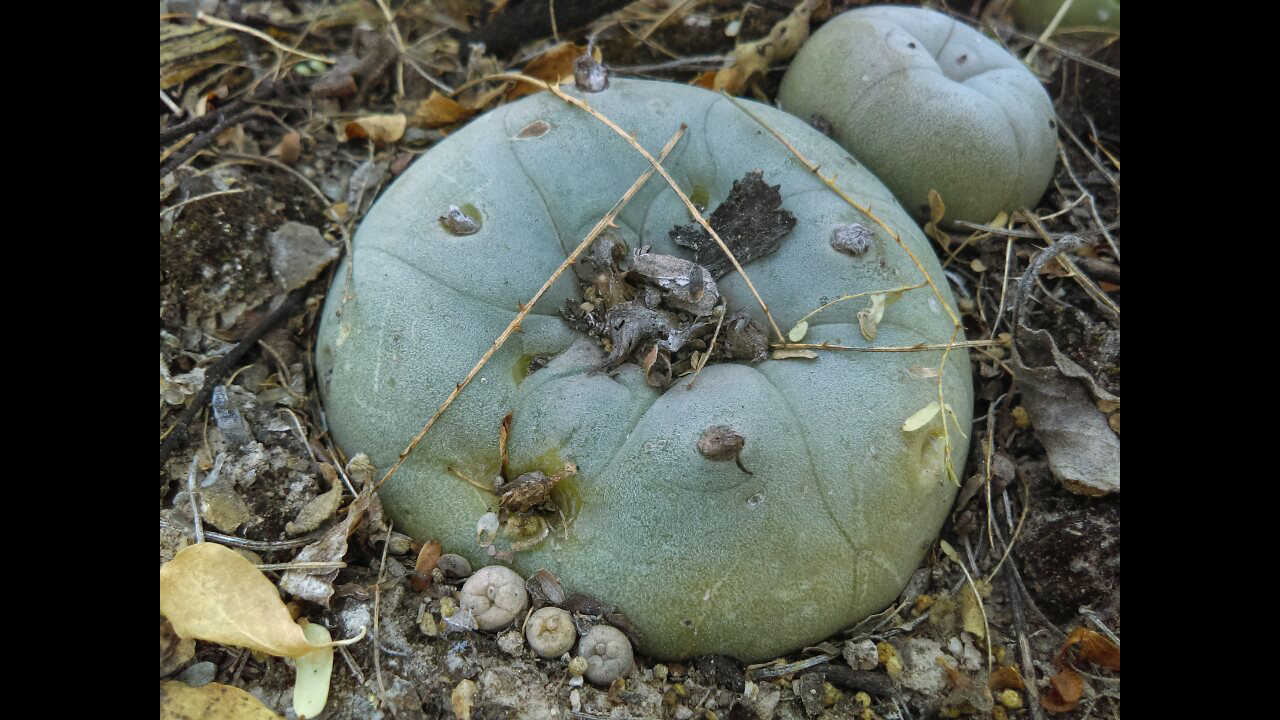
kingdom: Plantae
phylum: Tracheophyta
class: Magnoliopsida
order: Caryophyllales
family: Cactaceae
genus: Lophophora
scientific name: Lophophora diffusa
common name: Peyote
